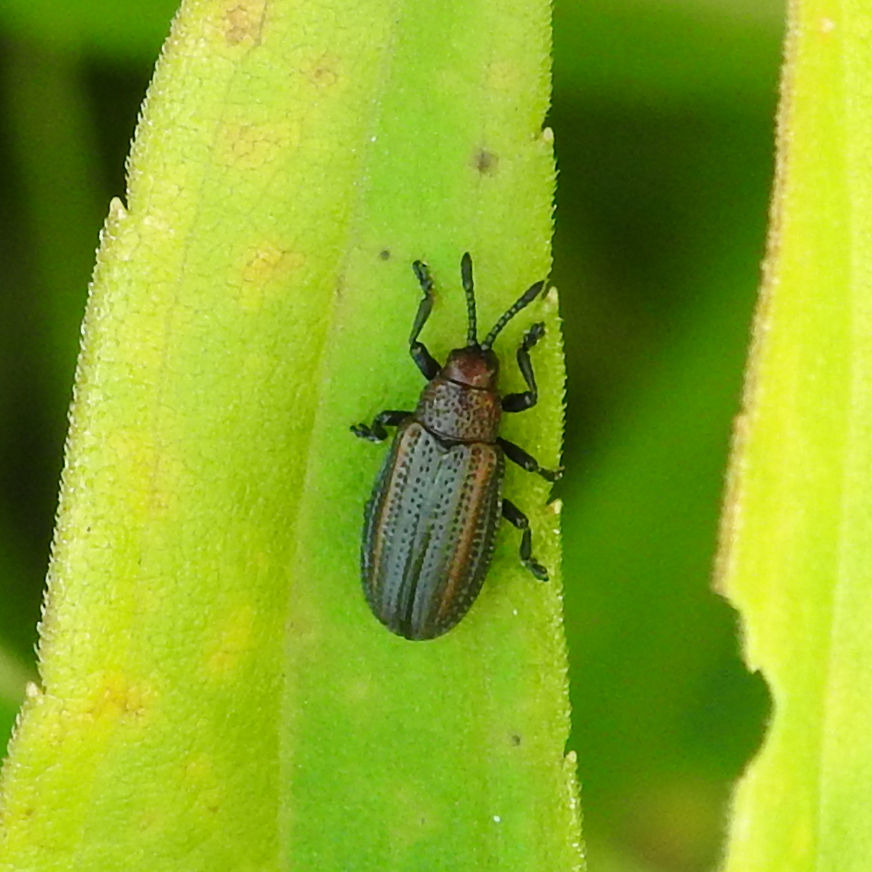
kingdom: Animalia
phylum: Arthropoda
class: Insecta
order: Coleoptera
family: Chrysomelidae
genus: Microrhopala
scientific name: Microrhopala vittata
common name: Goldenrod leaf miner beetle
